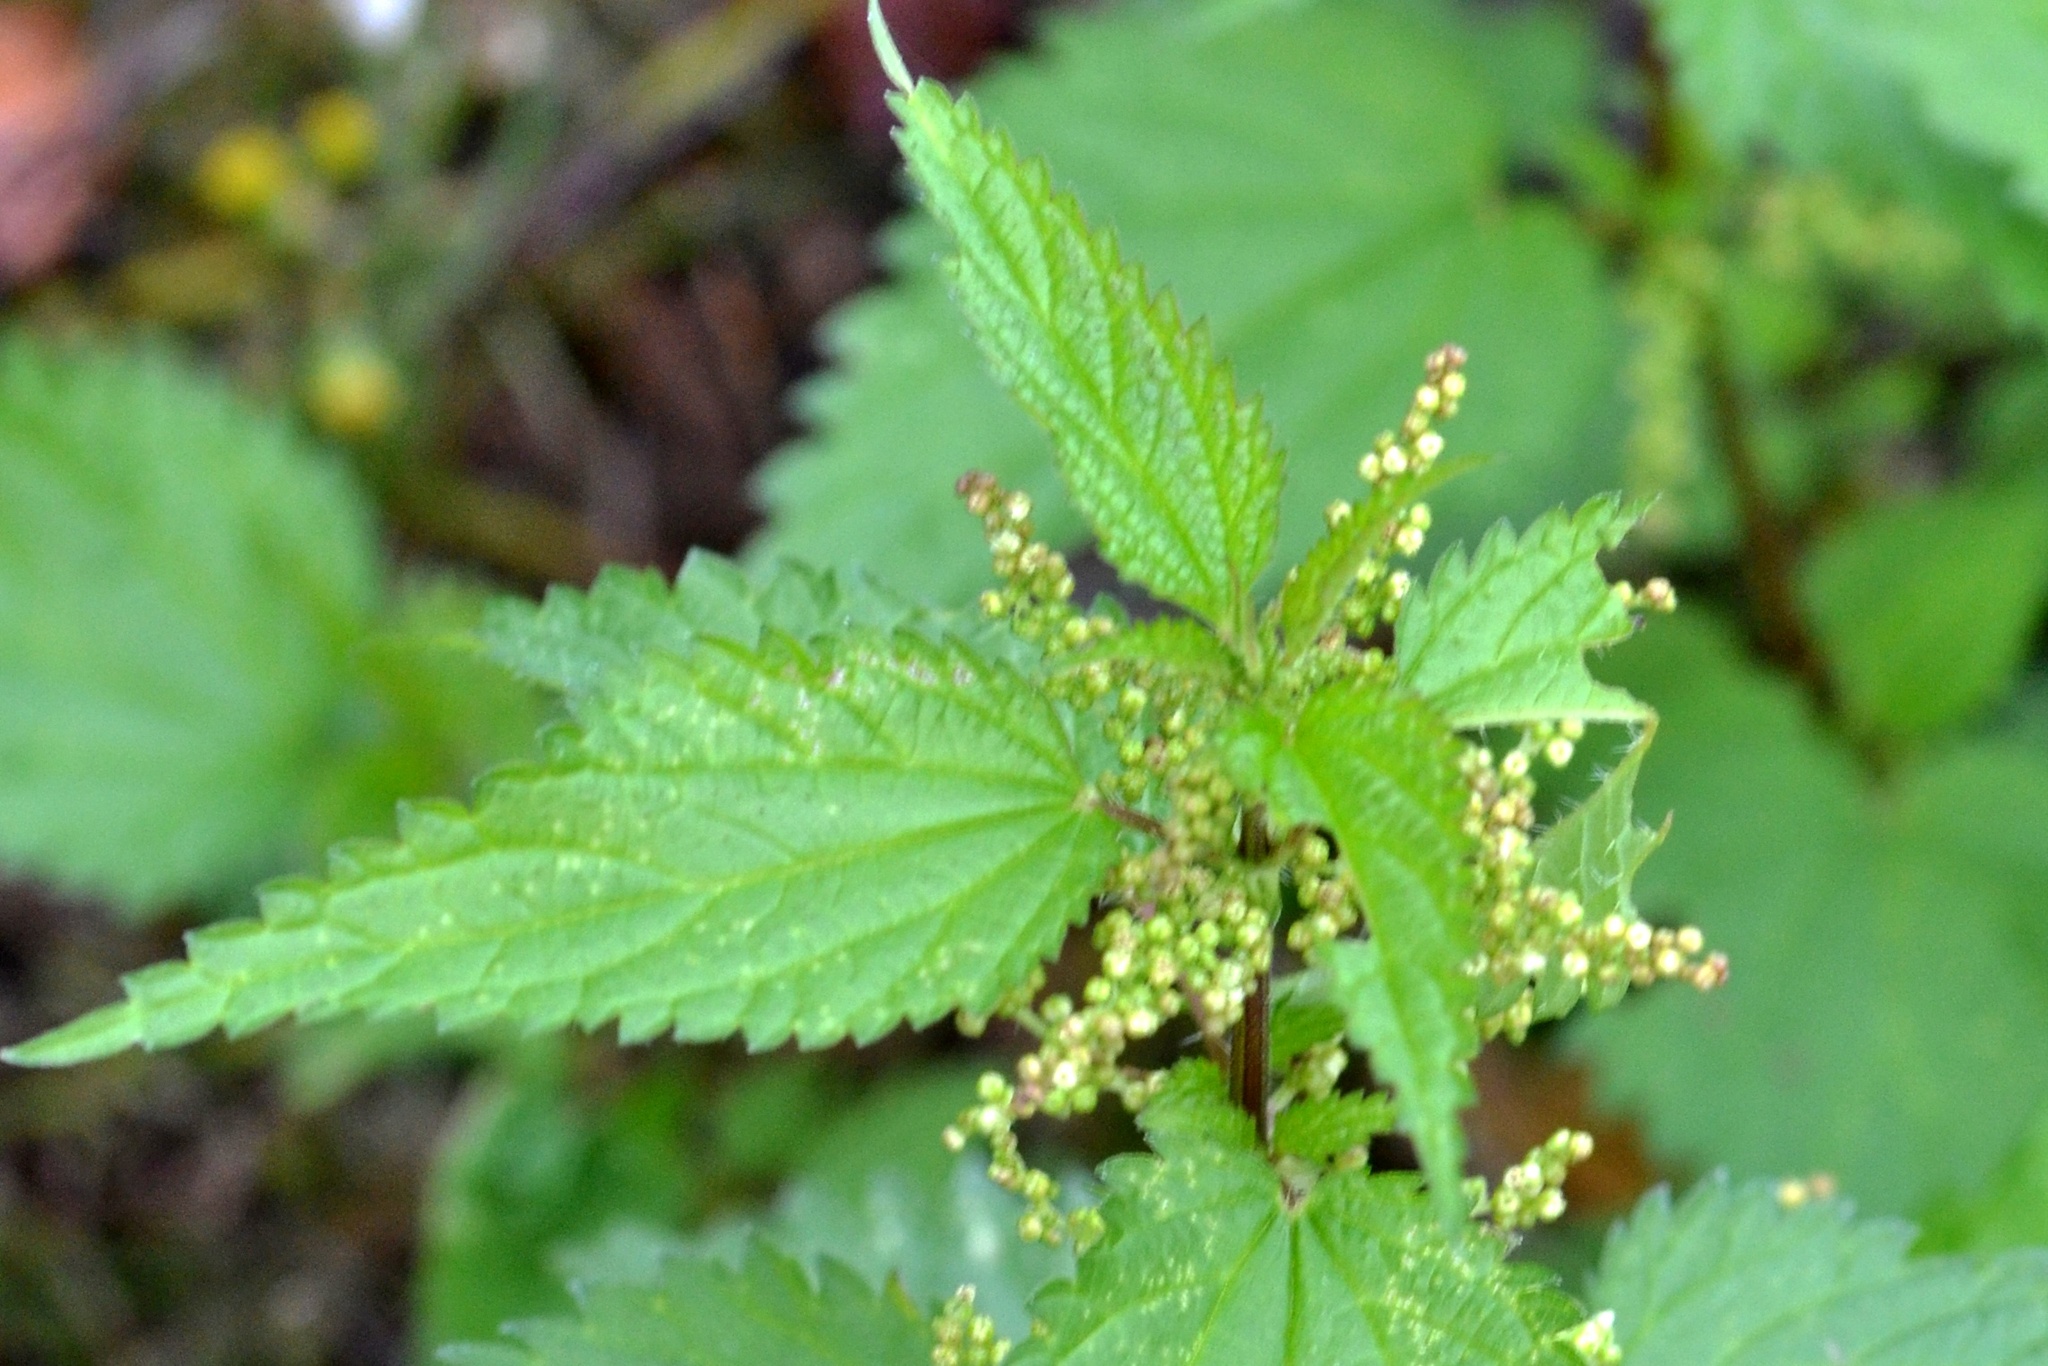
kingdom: Plantae
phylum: Tracheophyta
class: Magnoliopsida
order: Rosales
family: Urticaceae
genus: Urtica
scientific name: Urtica dioica
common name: Common nettle
